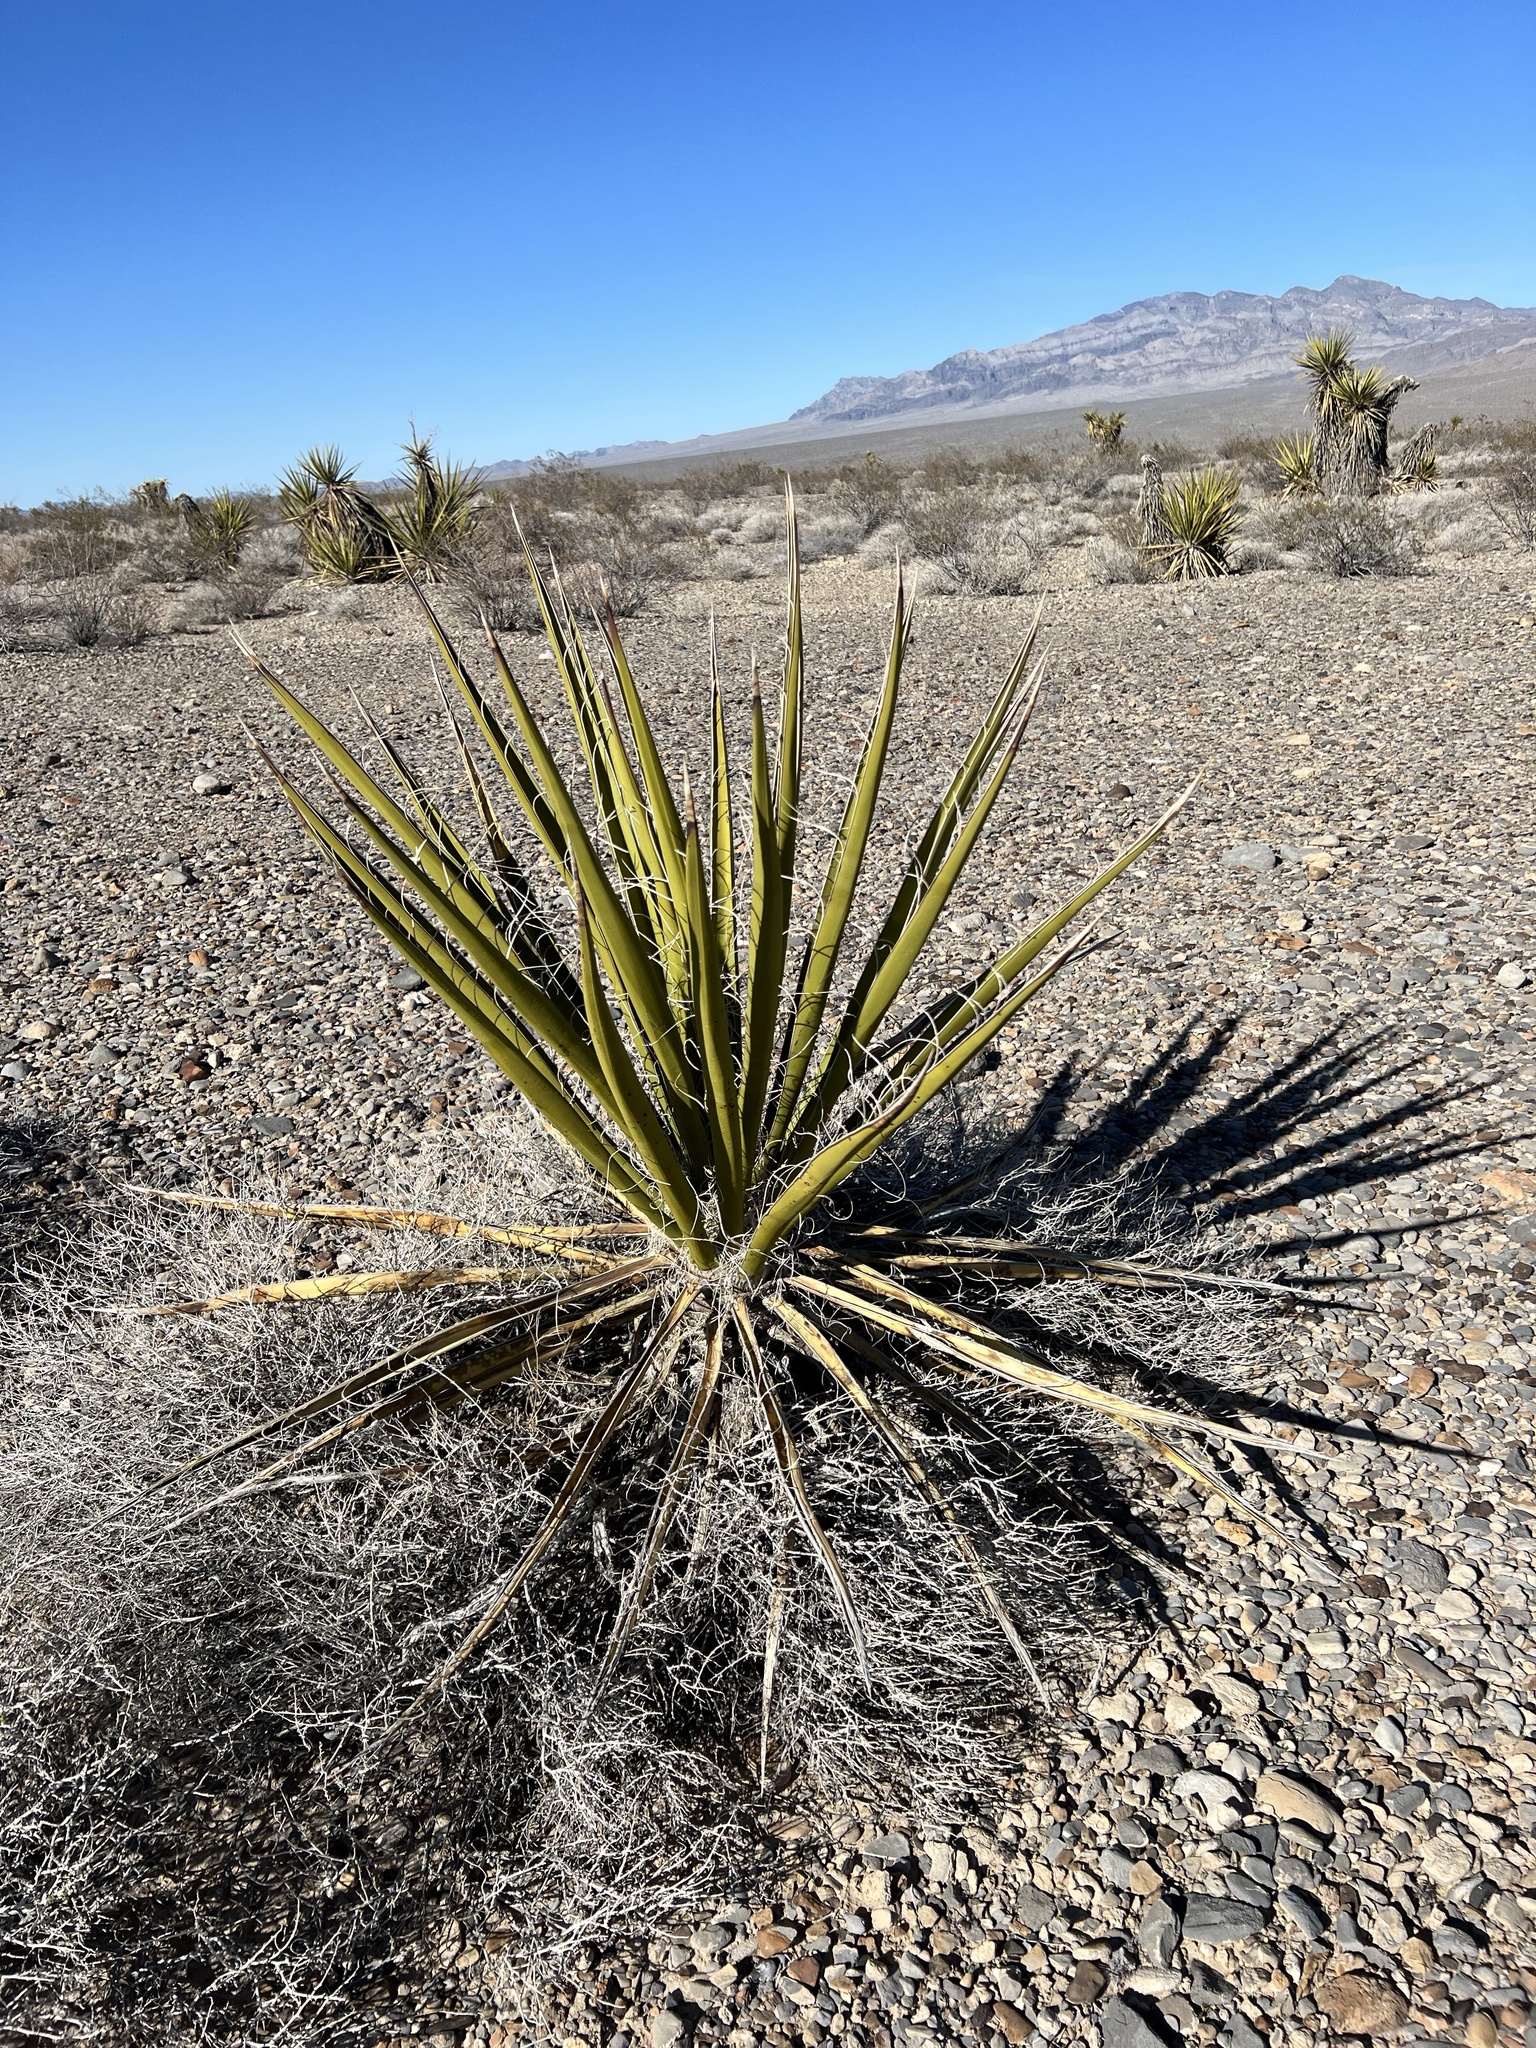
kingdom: Plantae
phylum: Tracheophyta
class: Liliopsida
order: Asparagales
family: Asparagaceae
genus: Yucca
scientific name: Yucca schidigera
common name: Mojave yucca
